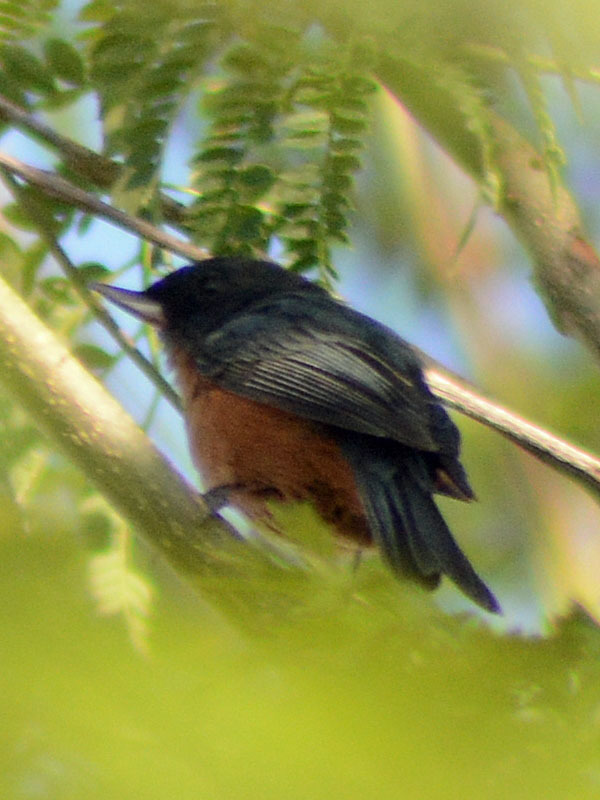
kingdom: Animalia
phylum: Chordata
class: Aves
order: Passeriformes
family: Thraupidae
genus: Diglossa
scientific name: Diglossa baritula
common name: Cinnamon-bellied flowerpiercer
